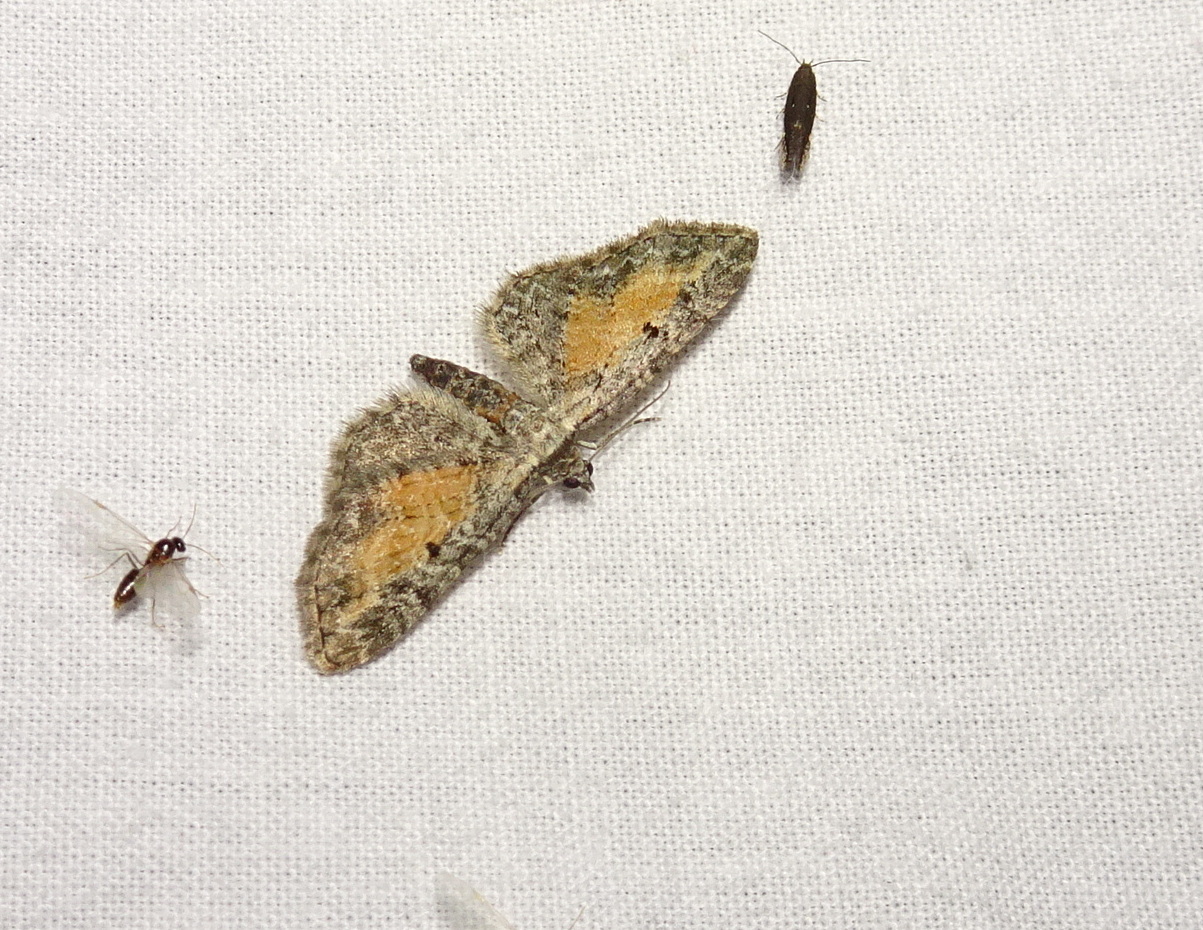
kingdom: Animalia
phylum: Arthropoda
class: Insecta
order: Lepidoptera
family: Geometridae
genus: Eupithecia
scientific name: Eupithecia icterata
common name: Tawny speckled pug
